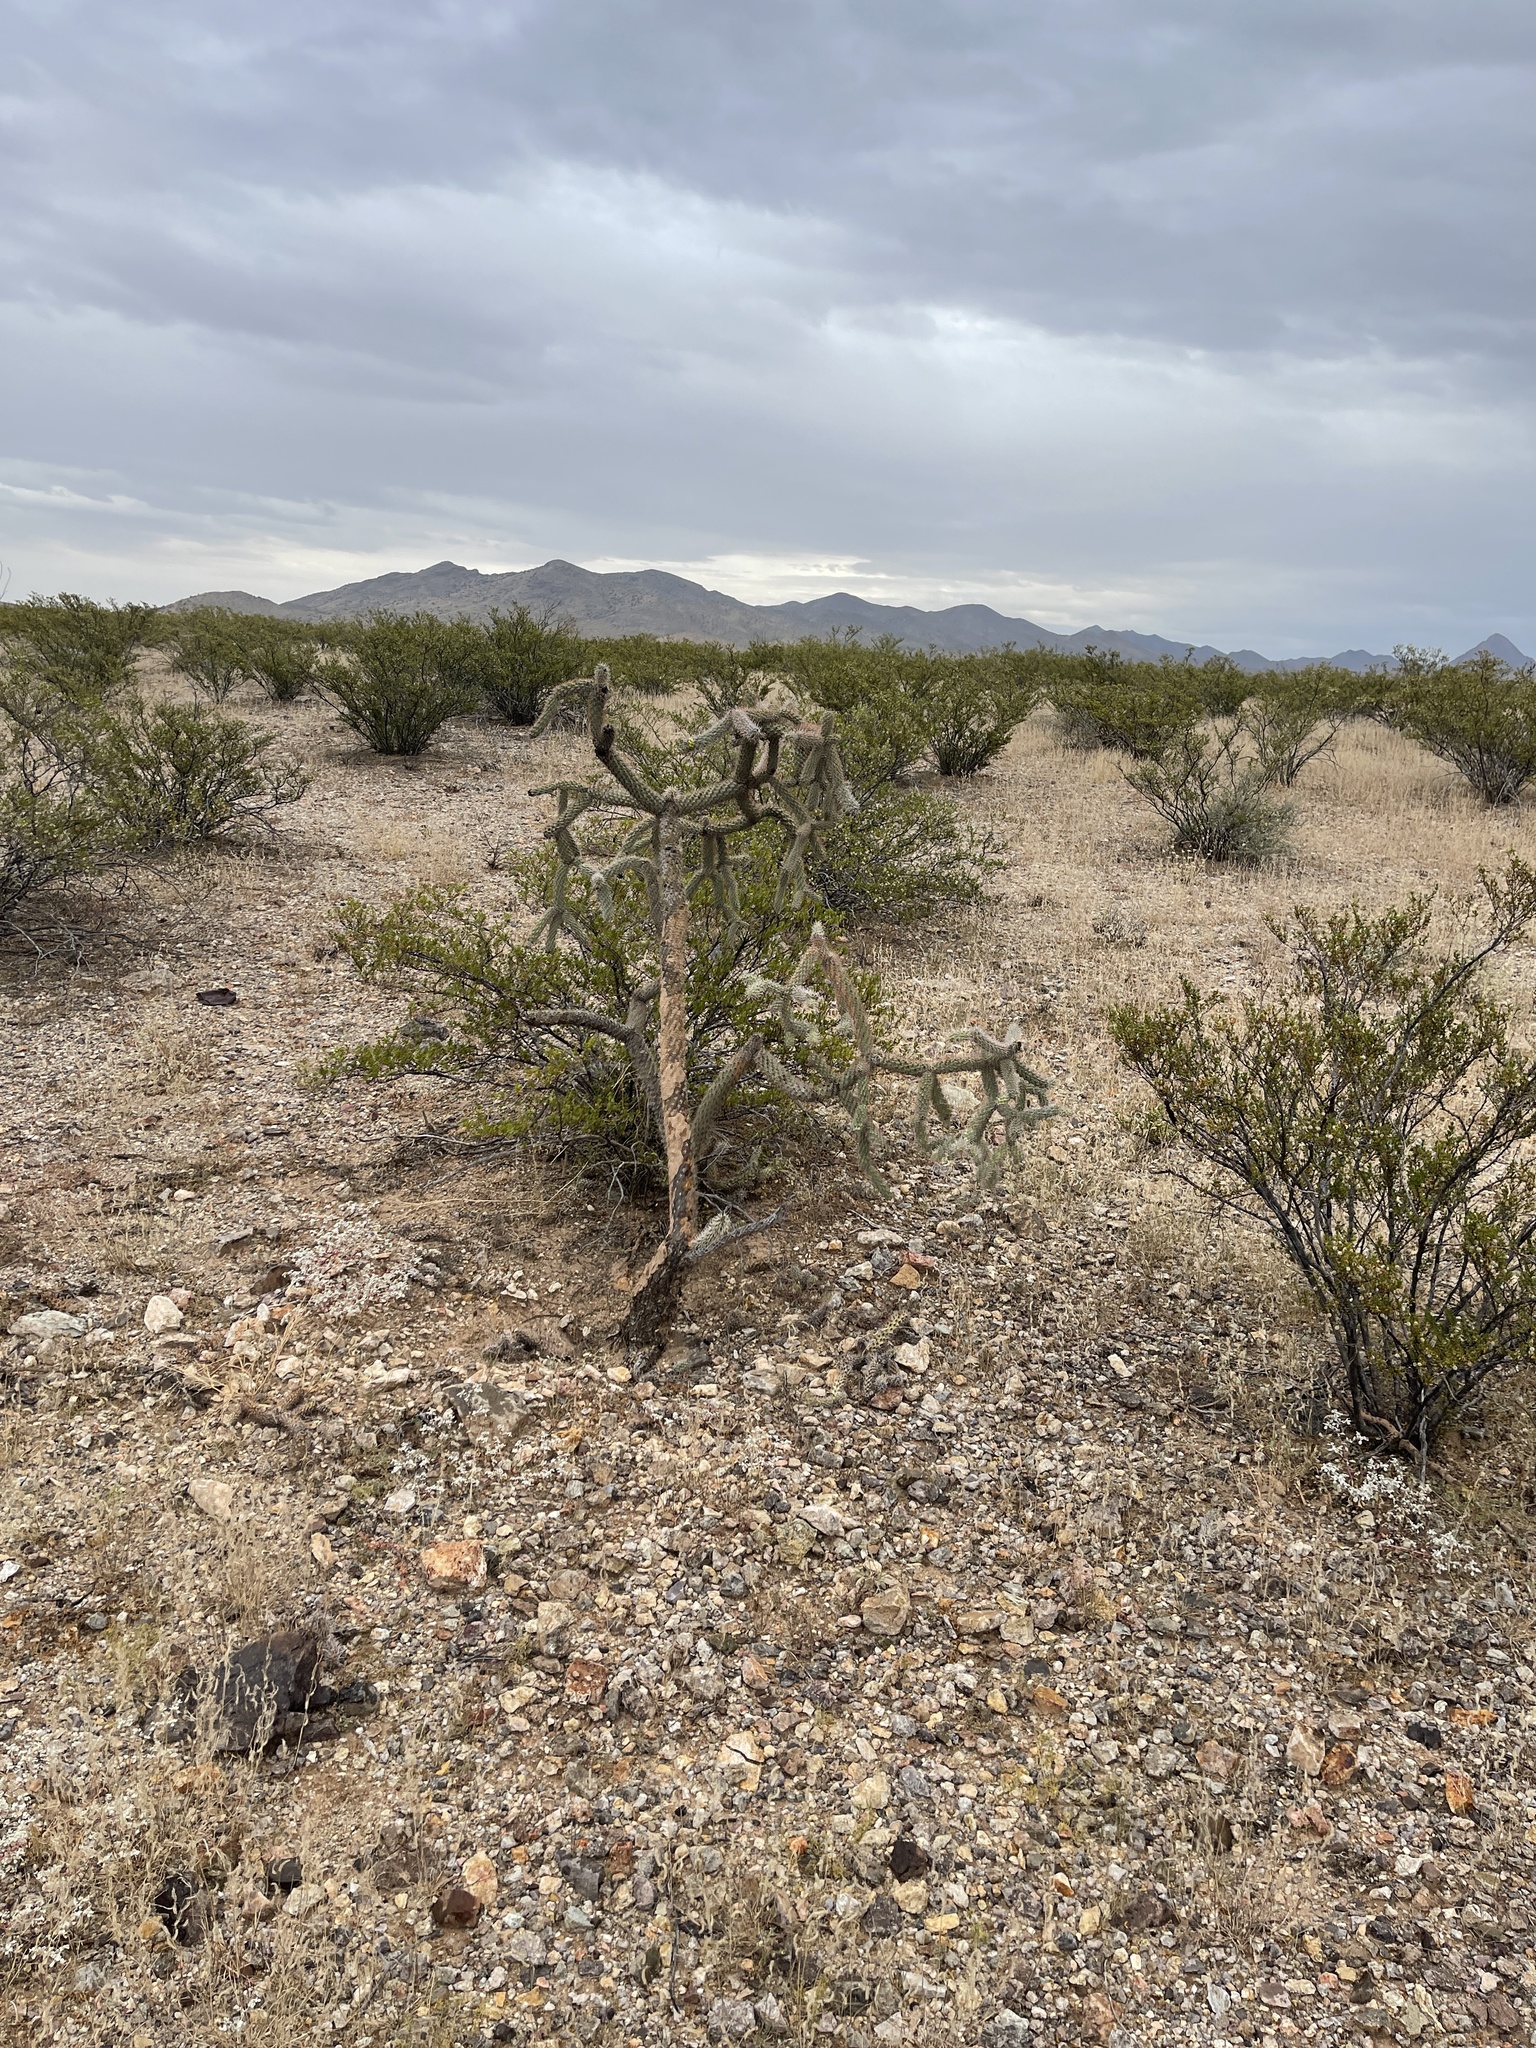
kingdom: Plantae
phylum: Tracheophyta
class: Magnoliopsida
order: Caryophyllales
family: Cactaceae
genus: Cylindropuntia
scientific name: Cylindropuntia imbricata
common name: Candelabrum cactus
